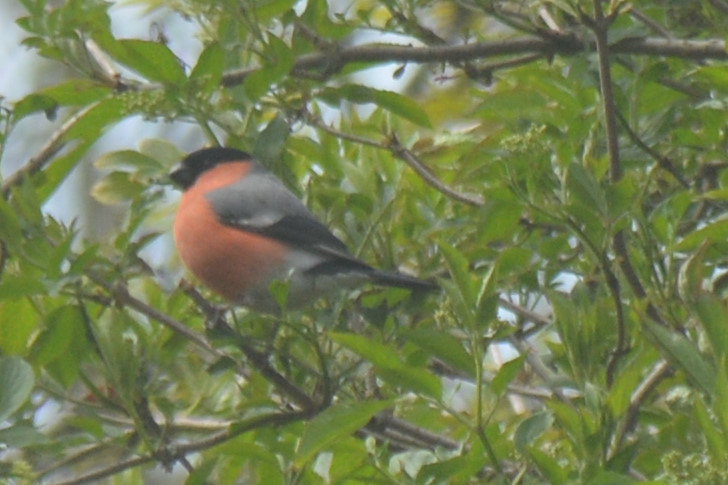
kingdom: Animalia
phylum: Chordata
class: Aves
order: Passeriformes
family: Fringillidae
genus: Pyrrhula
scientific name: Pyrrhula pyrrhula
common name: Eurasian bullfinch
